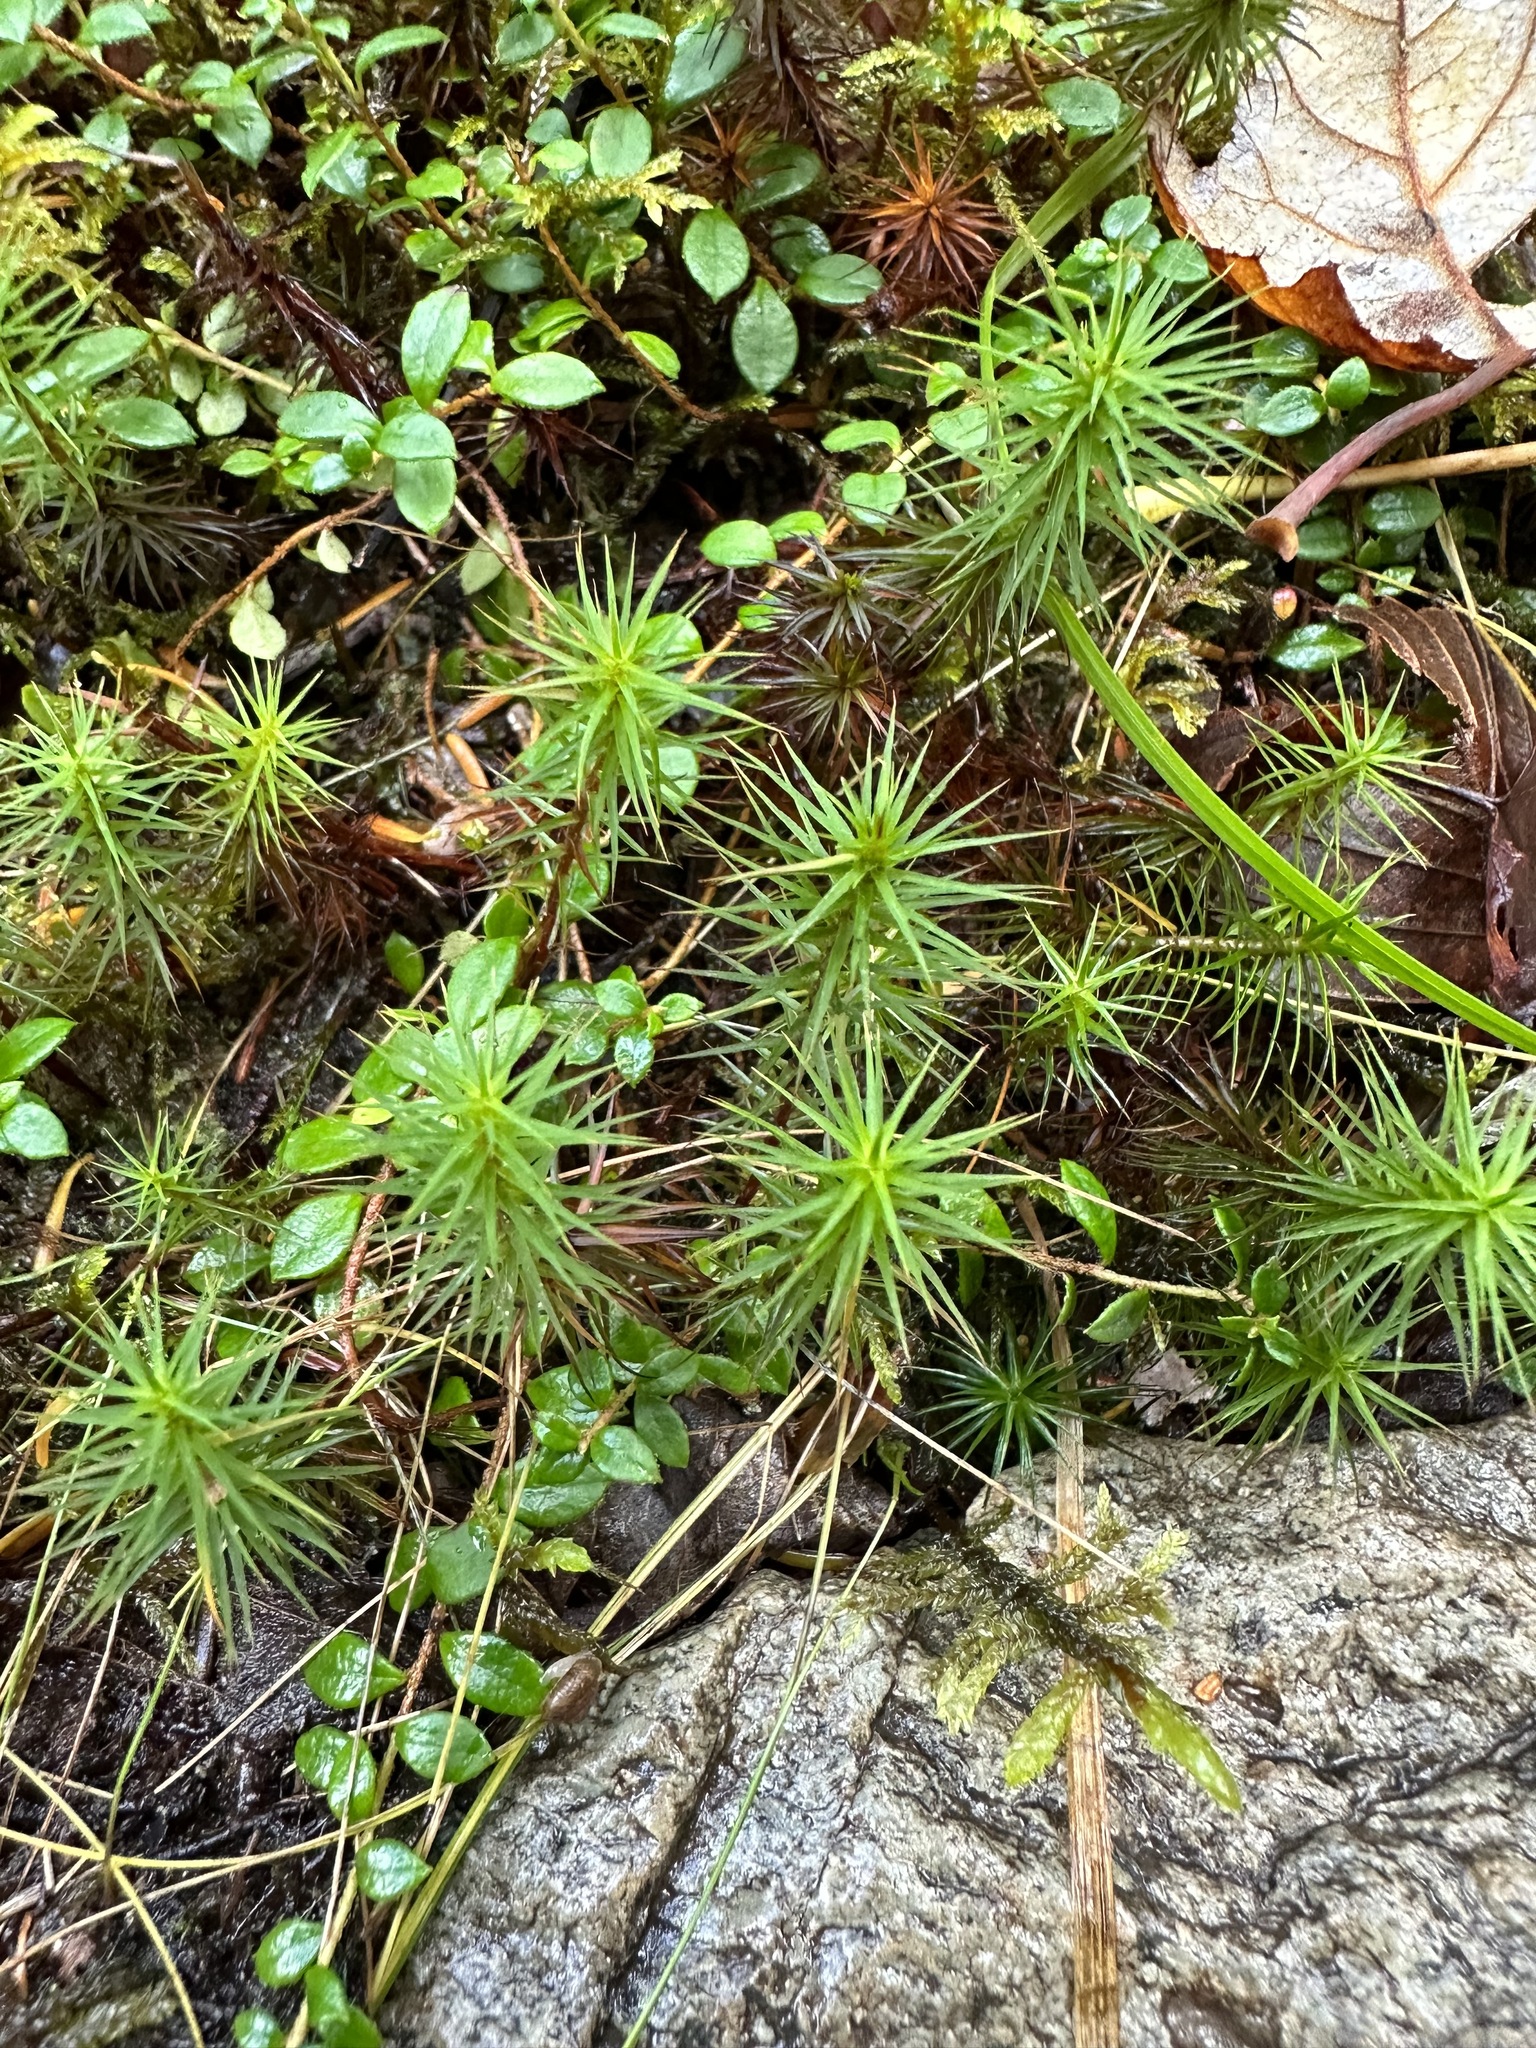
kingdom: Plantae
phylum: Bryophyta
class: Polytrichopsida
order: Polytrichales
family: Polytrichaceae
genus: Polytrichum
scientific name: Polytrichum commune
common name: Common haircap
